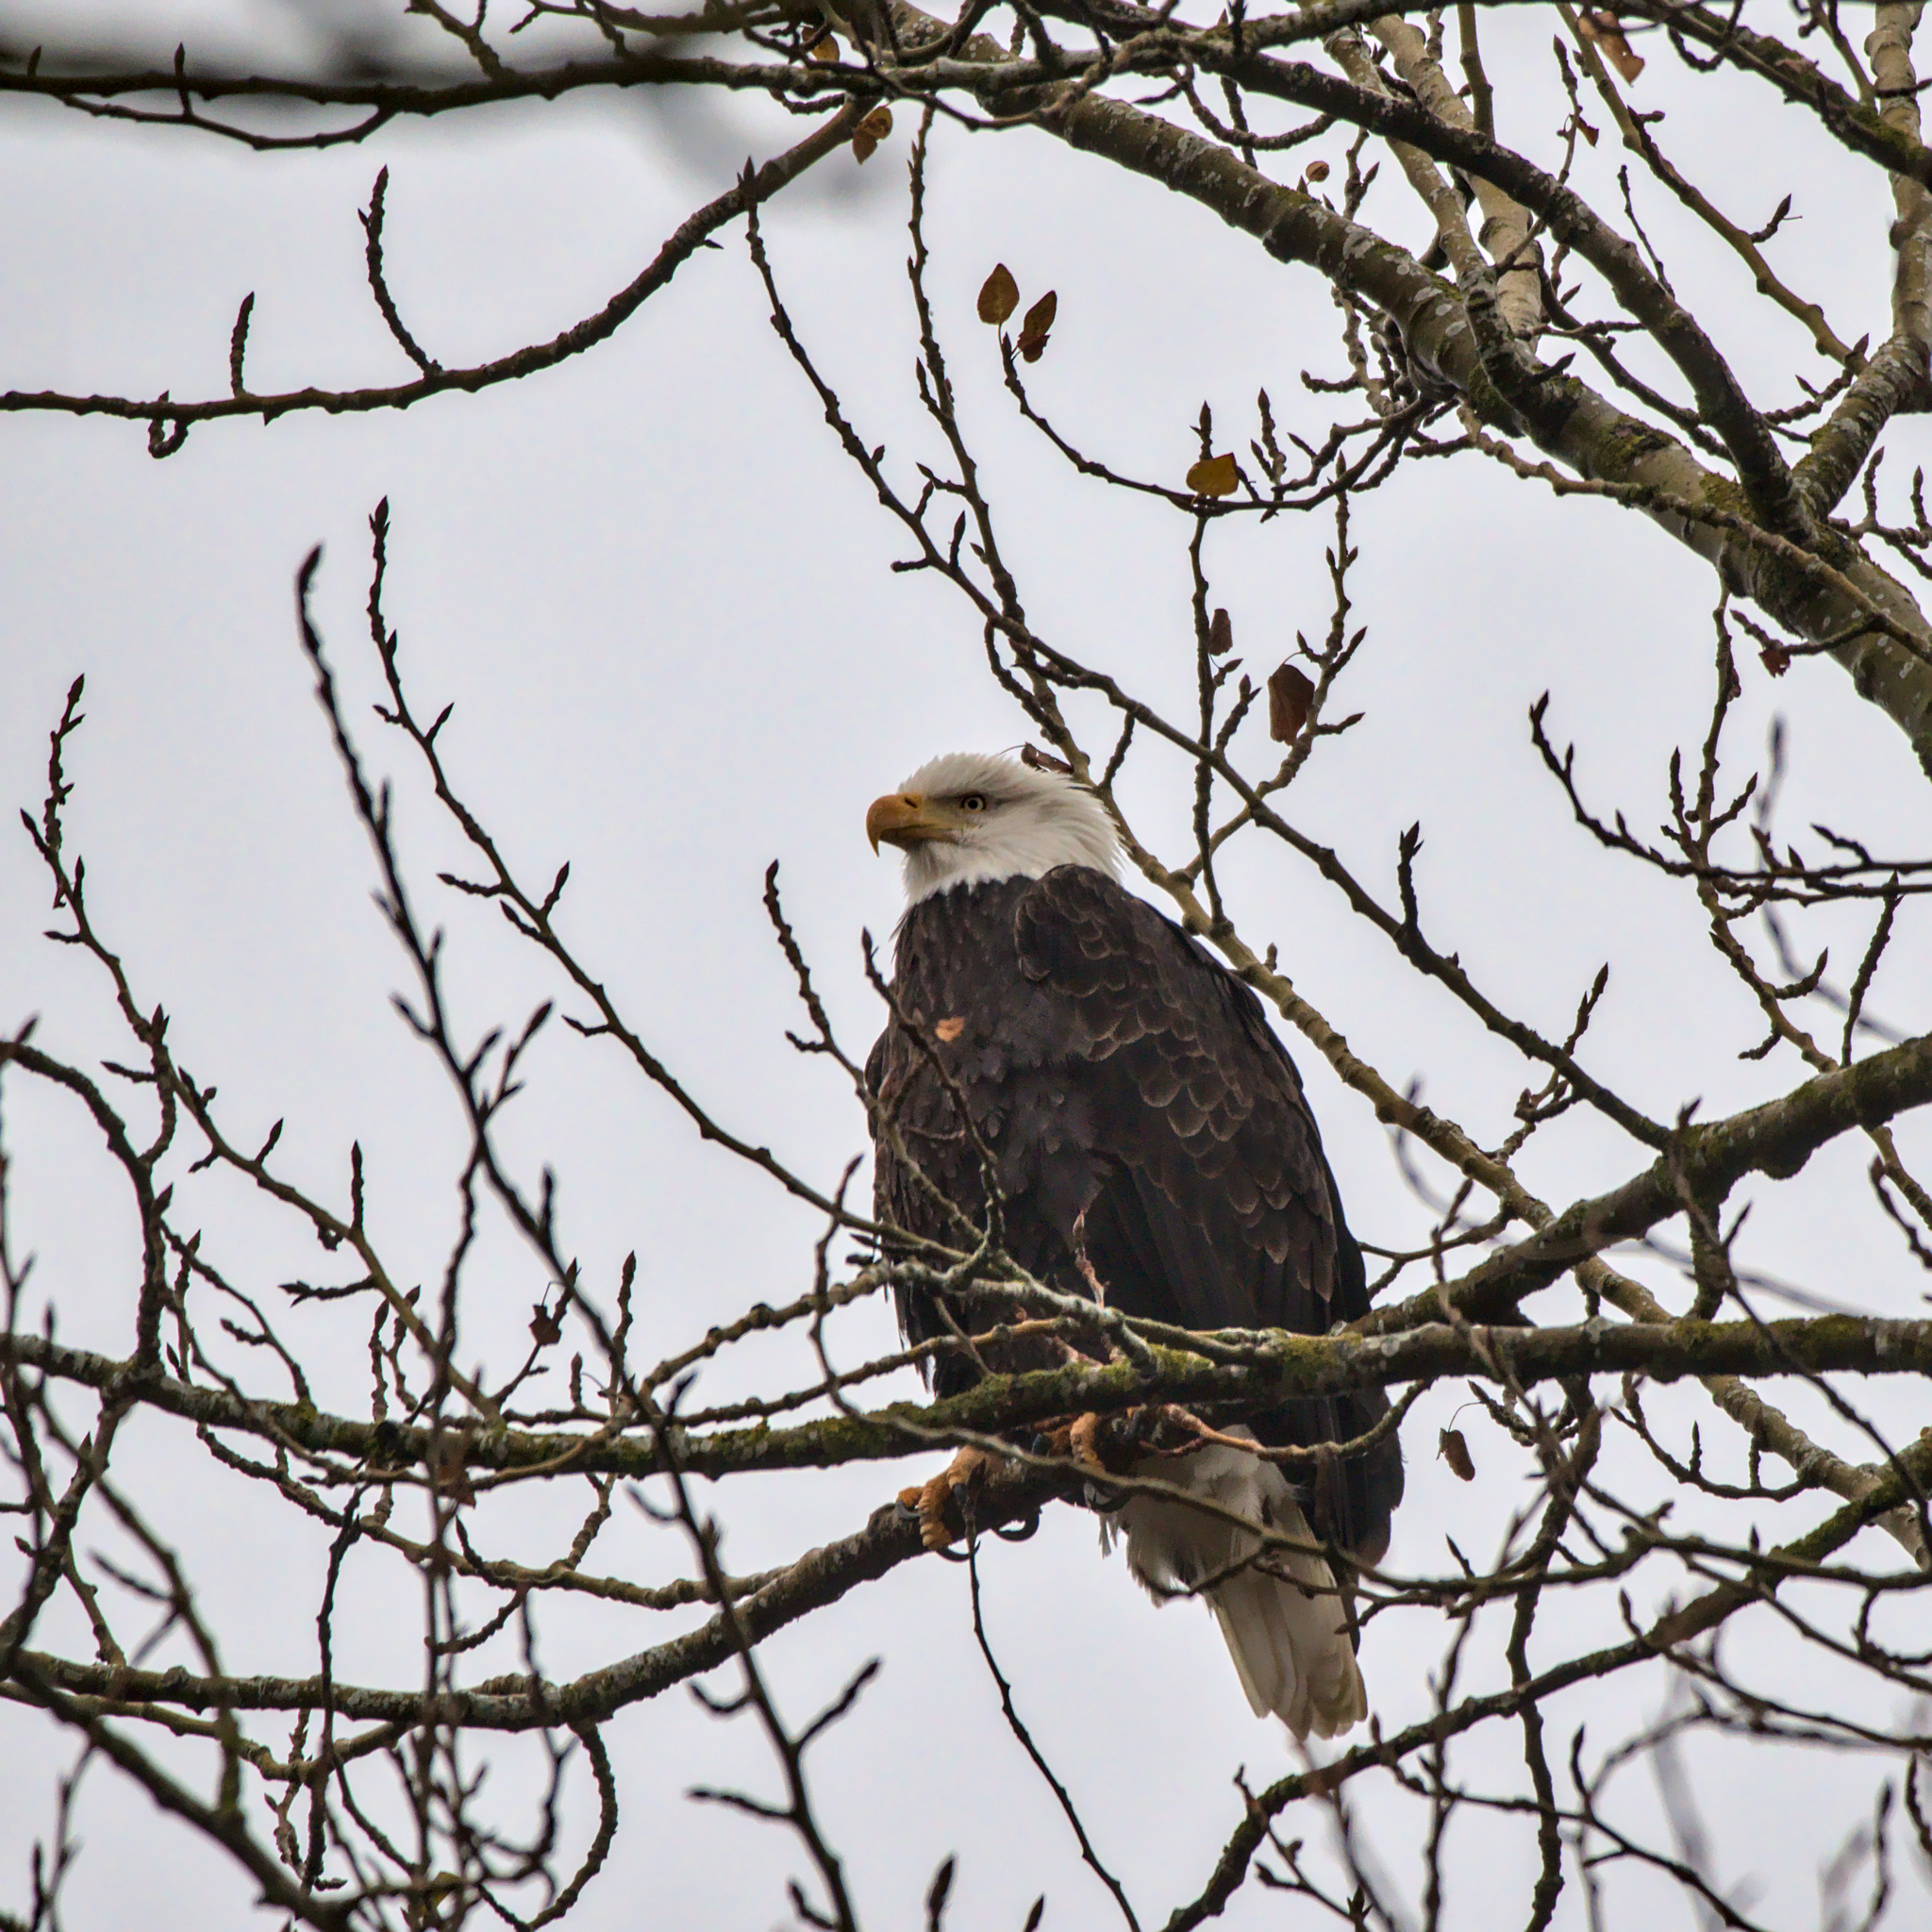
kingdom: Animalia
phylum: Chordata
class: Aves
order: Accipitriformes
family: Accipitridae
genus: Haliaeetus
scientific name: Haliaeetus leucocephalus
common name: Bald eagle
